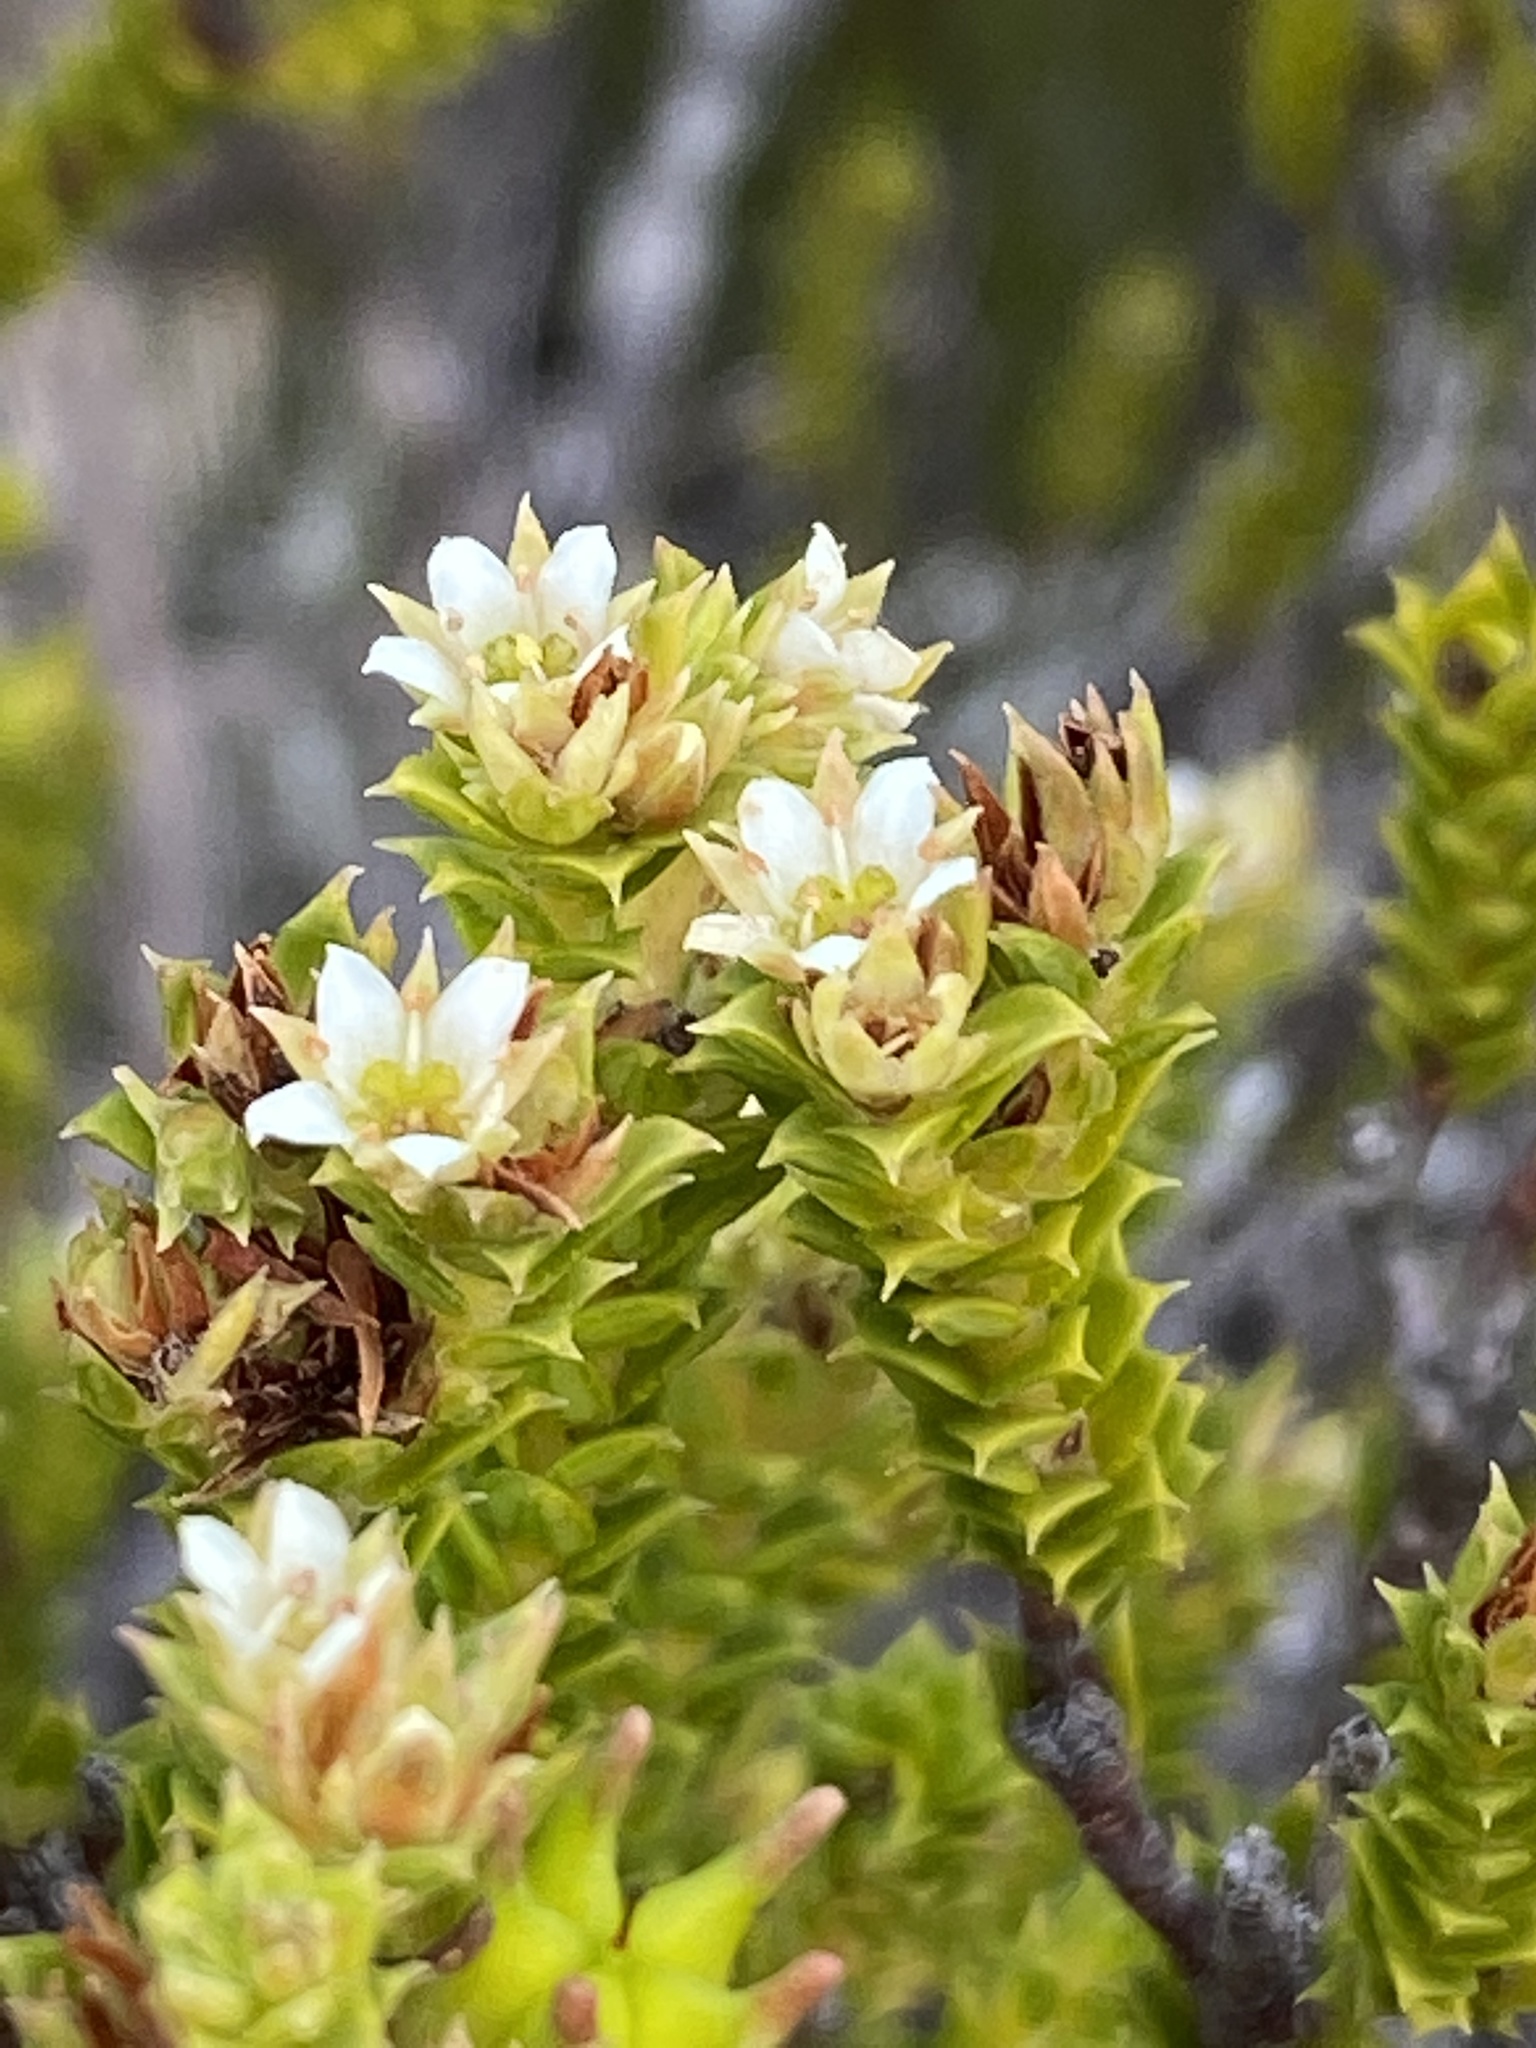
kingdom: Plantae
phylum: Tracheophyta
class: Magnoliopsida
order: Sapindales
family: Rutaceae
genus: Diosma
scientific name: Diosma echinulata
